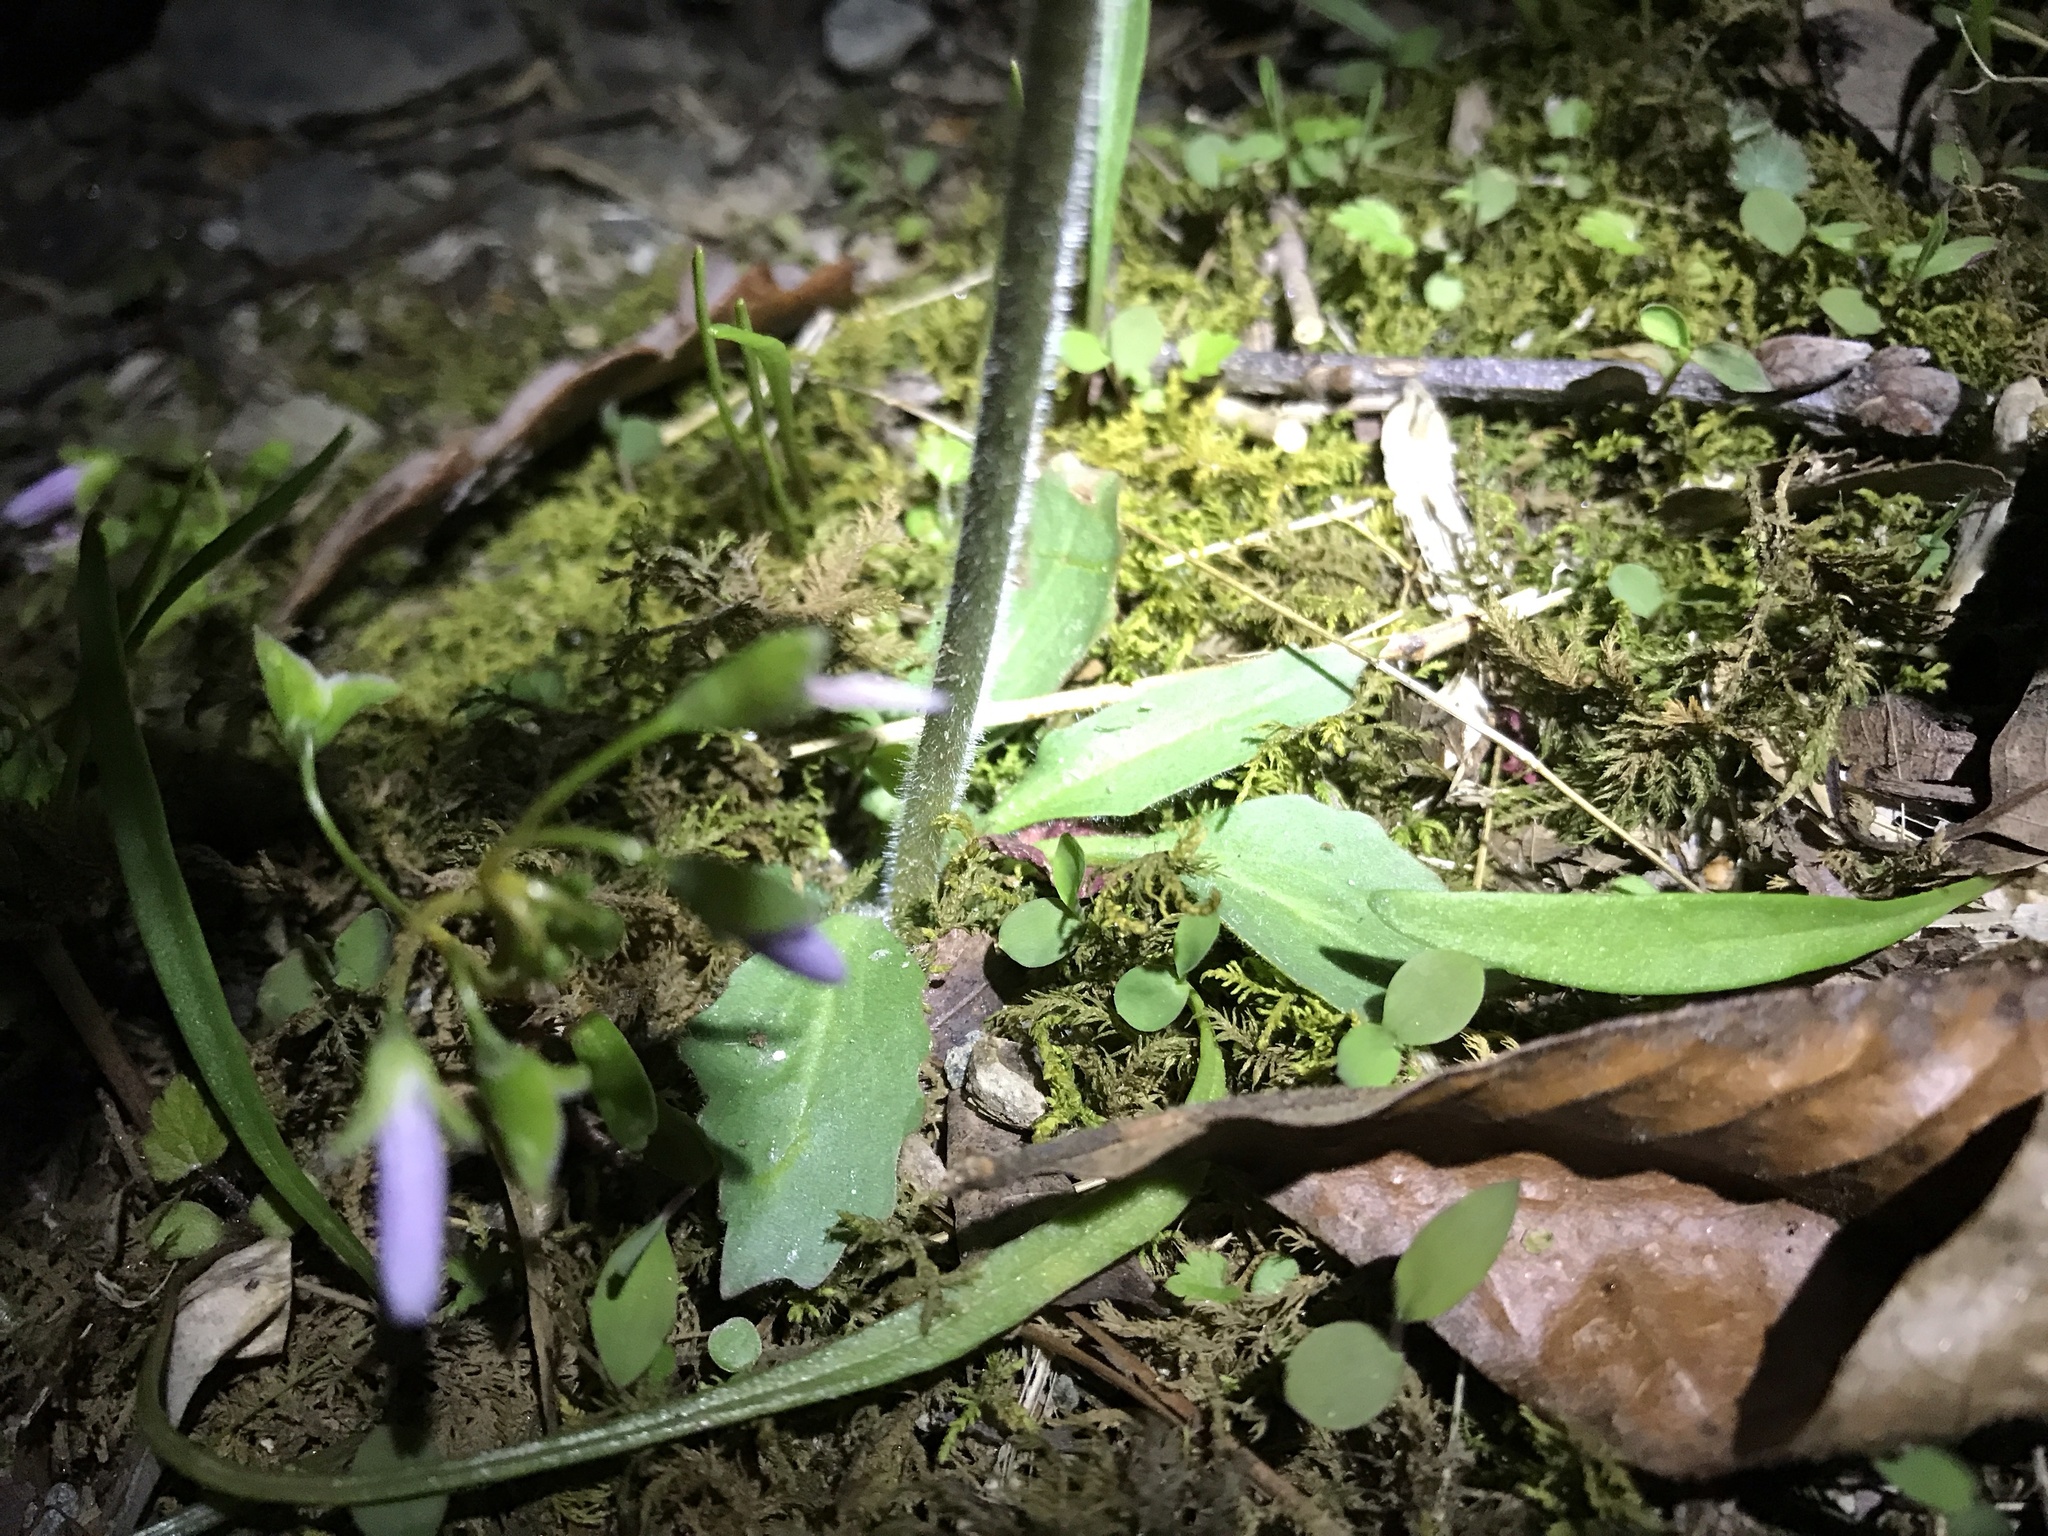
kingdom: Plantae
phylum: Tracheophyta
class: Magnoliopsida
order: Saxifragales
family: Saxifragaceae
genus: Micranthes
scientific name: Micranthes virginiensis
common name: Early saxifrage
